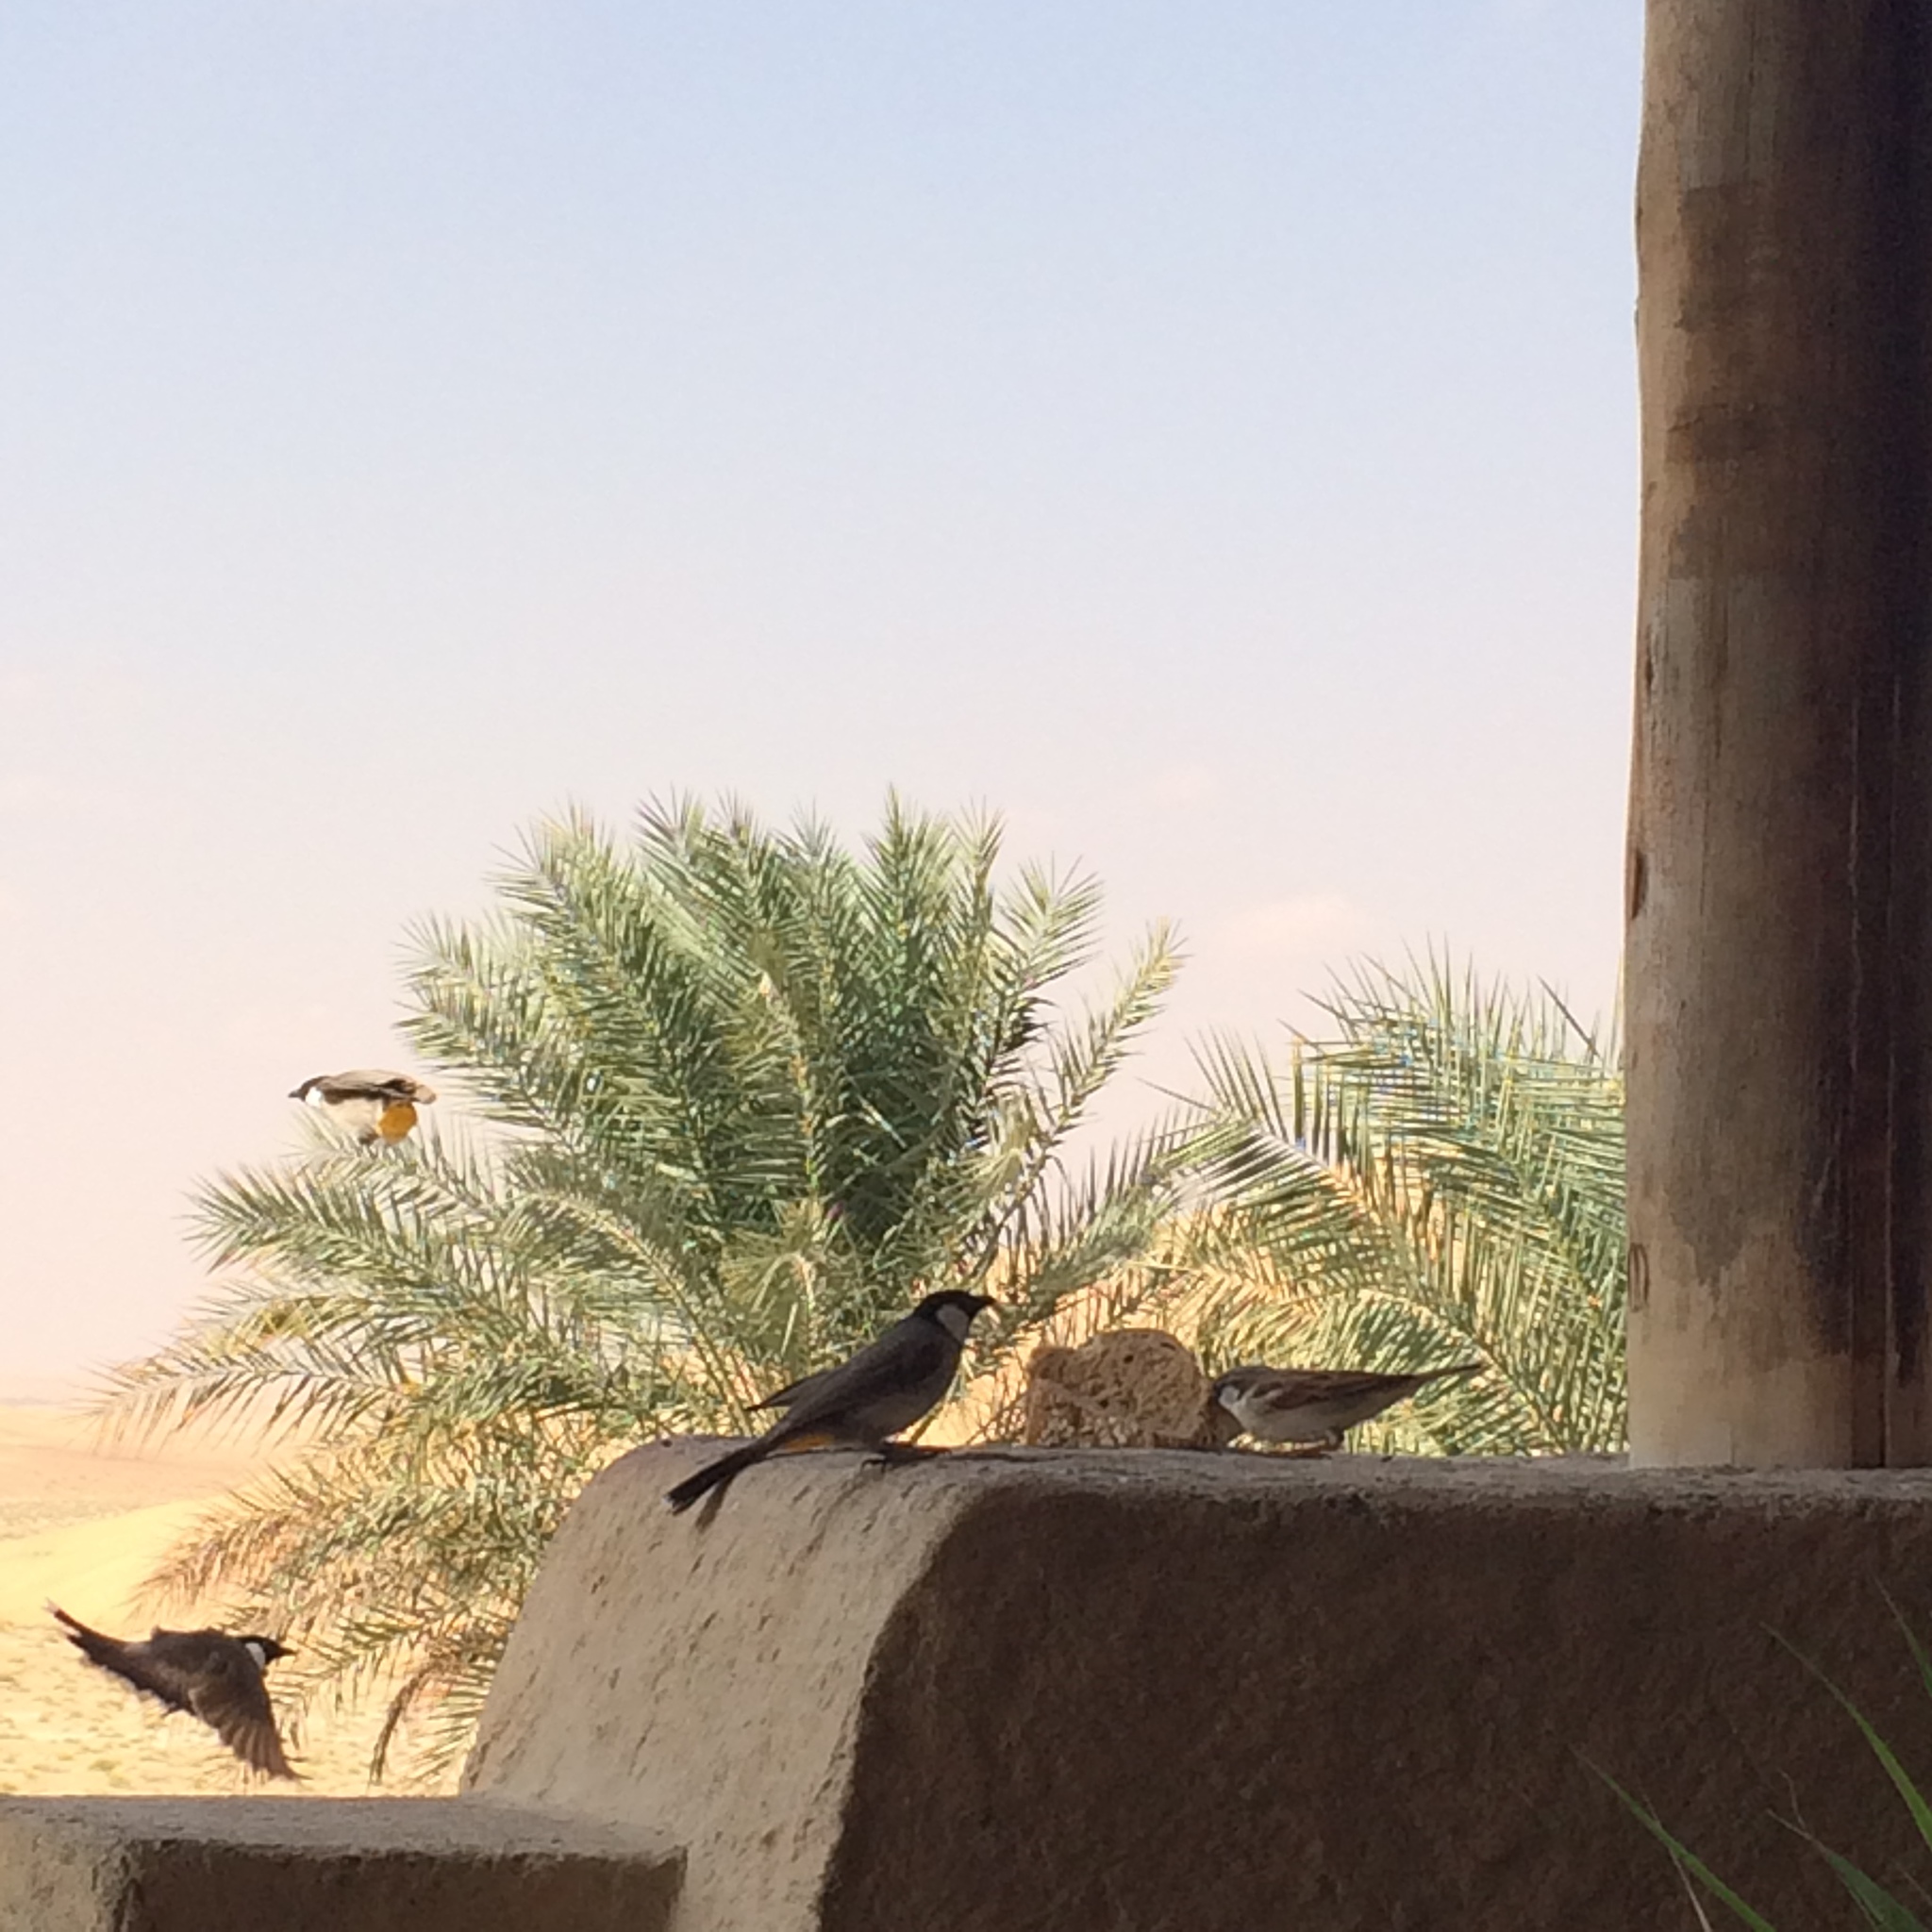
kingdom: Animalia
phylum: Chordata
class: Aves
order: Passeriformes
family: Passeridae
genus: Passer
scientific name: Passer domesticus
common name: House sparrow
